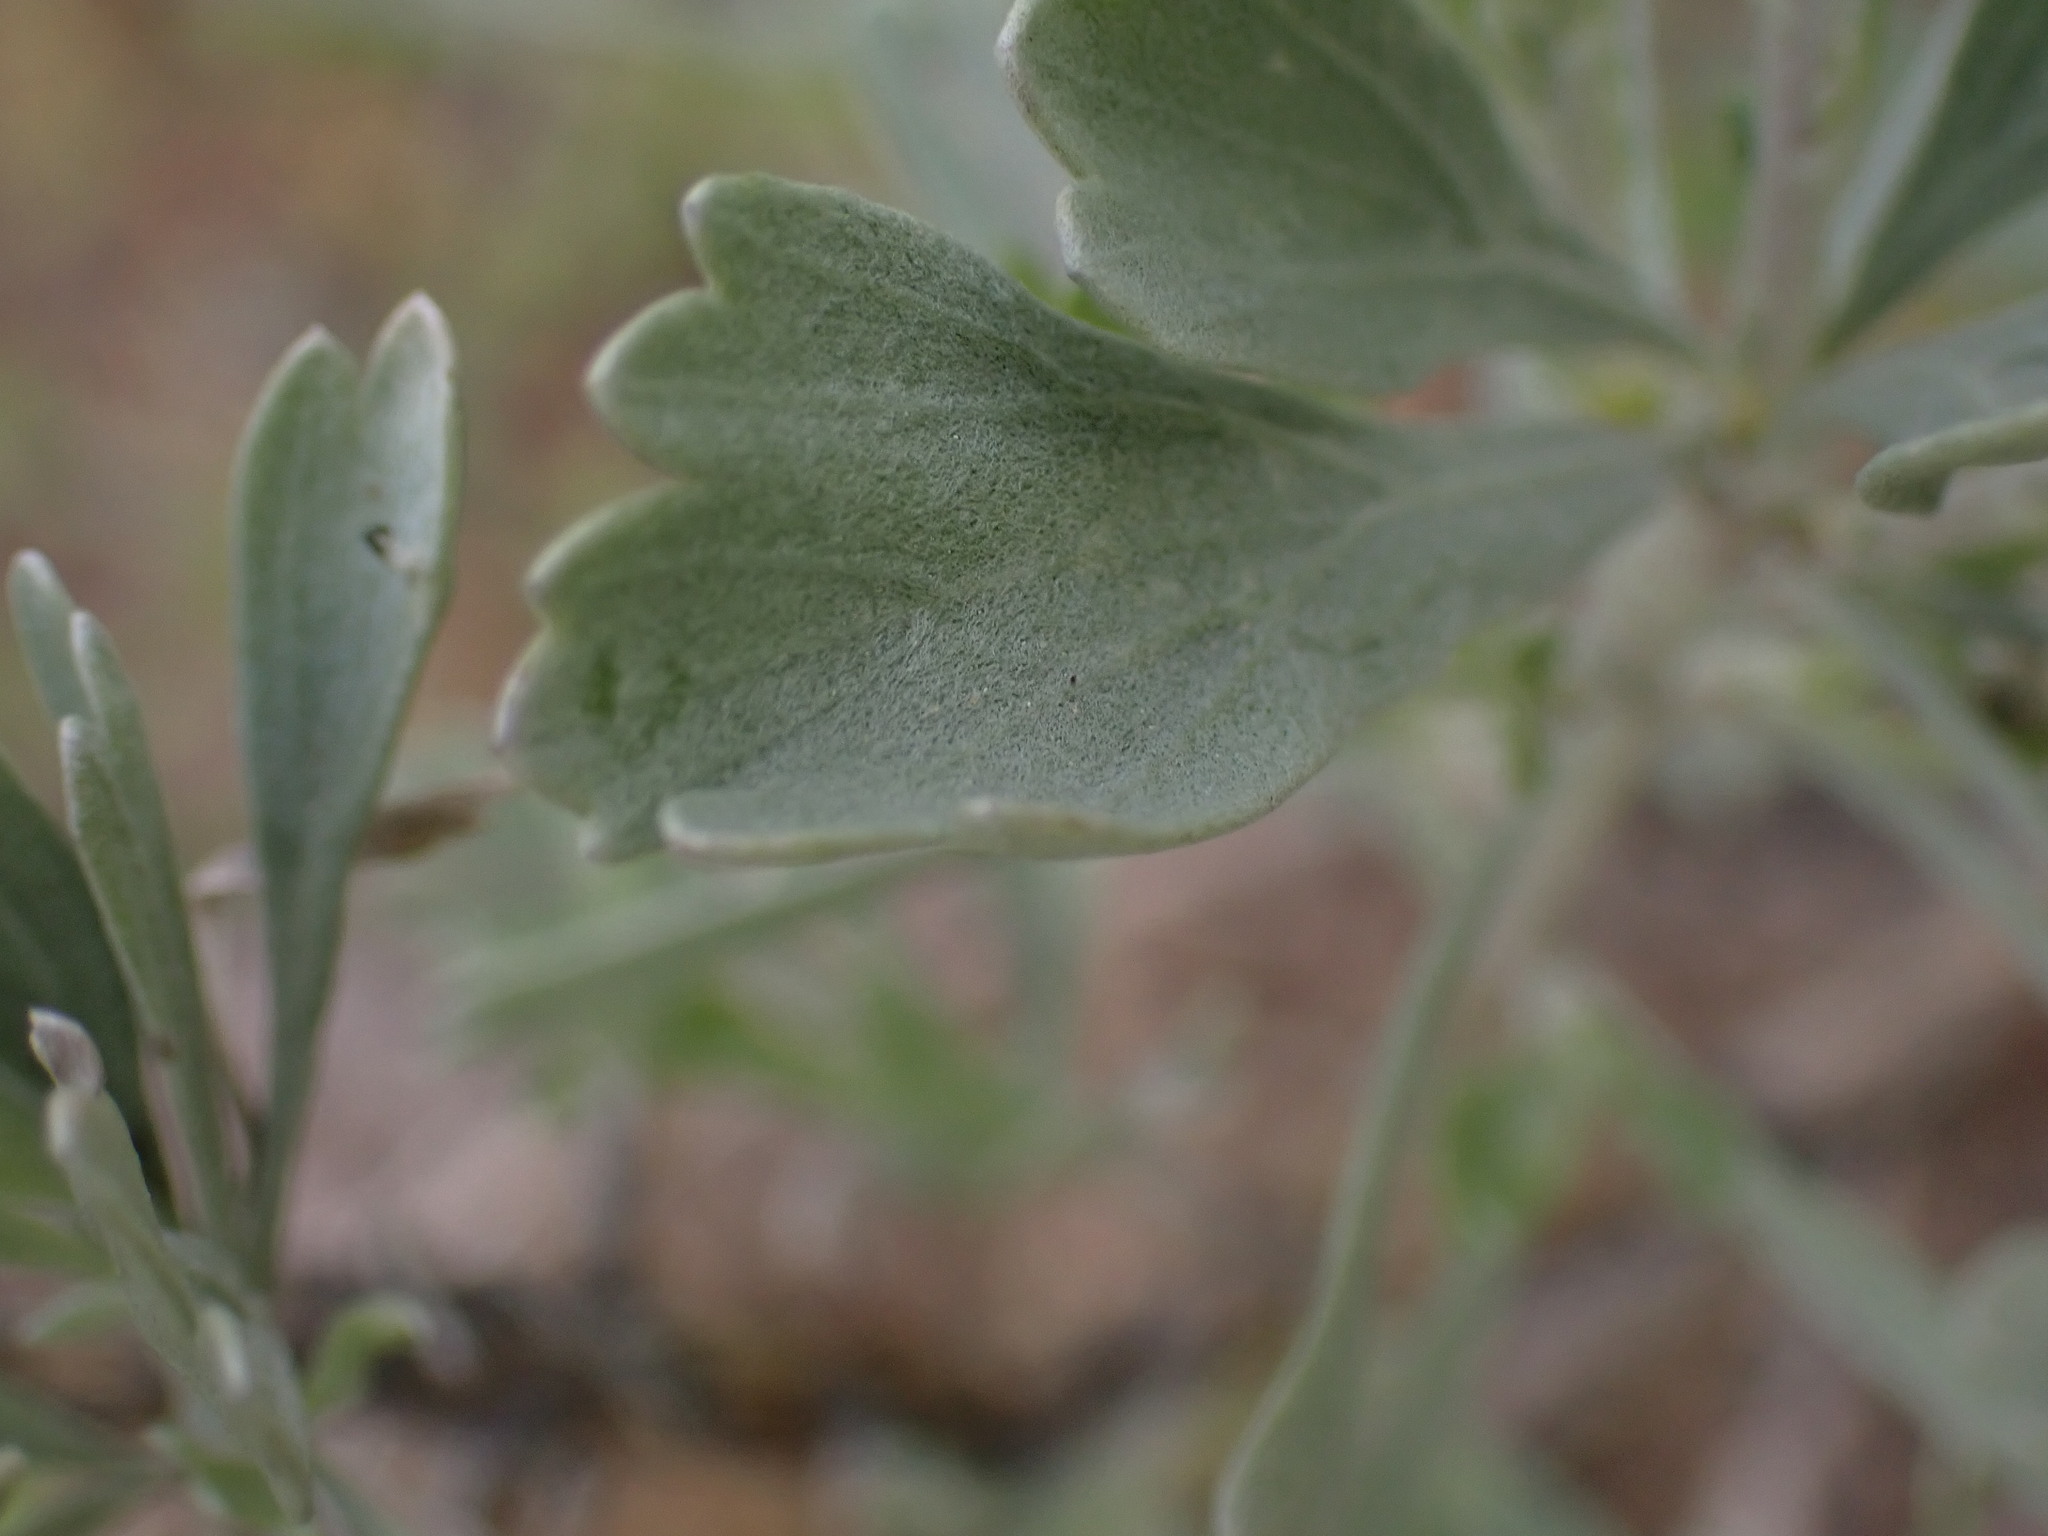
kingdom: Plantae
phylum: Tracheophyta
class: Magnoliopsida
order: Asterales
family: Asteraceae
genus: Artemisia
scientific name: Artemisia tridentata
